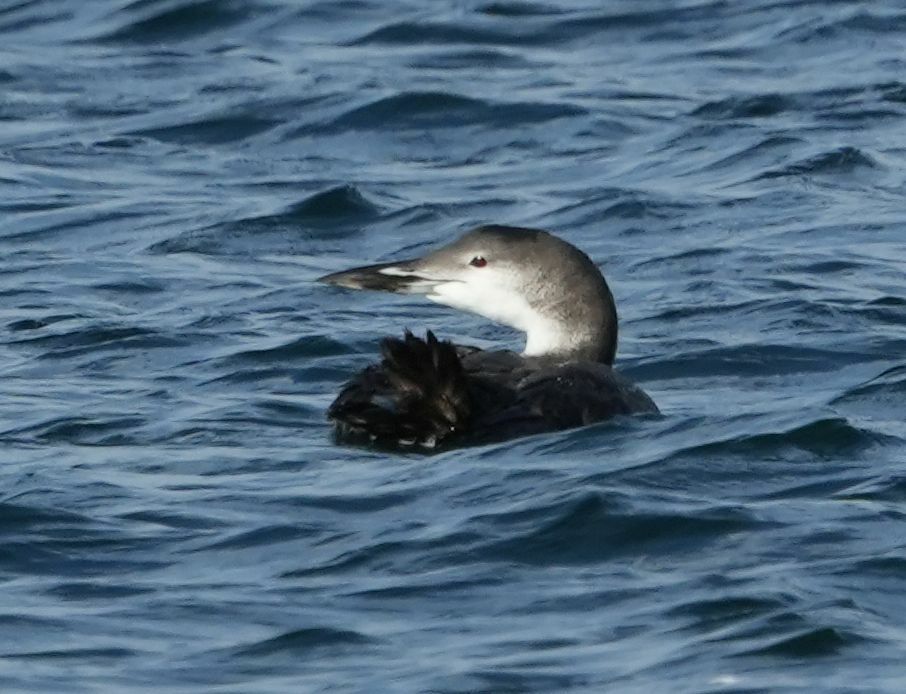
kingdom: Animalia
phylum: Chordata
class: Aves
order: Gaviiformes
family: Gaviidae
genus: Gavia
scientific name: Gavia immer
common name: Common loon
